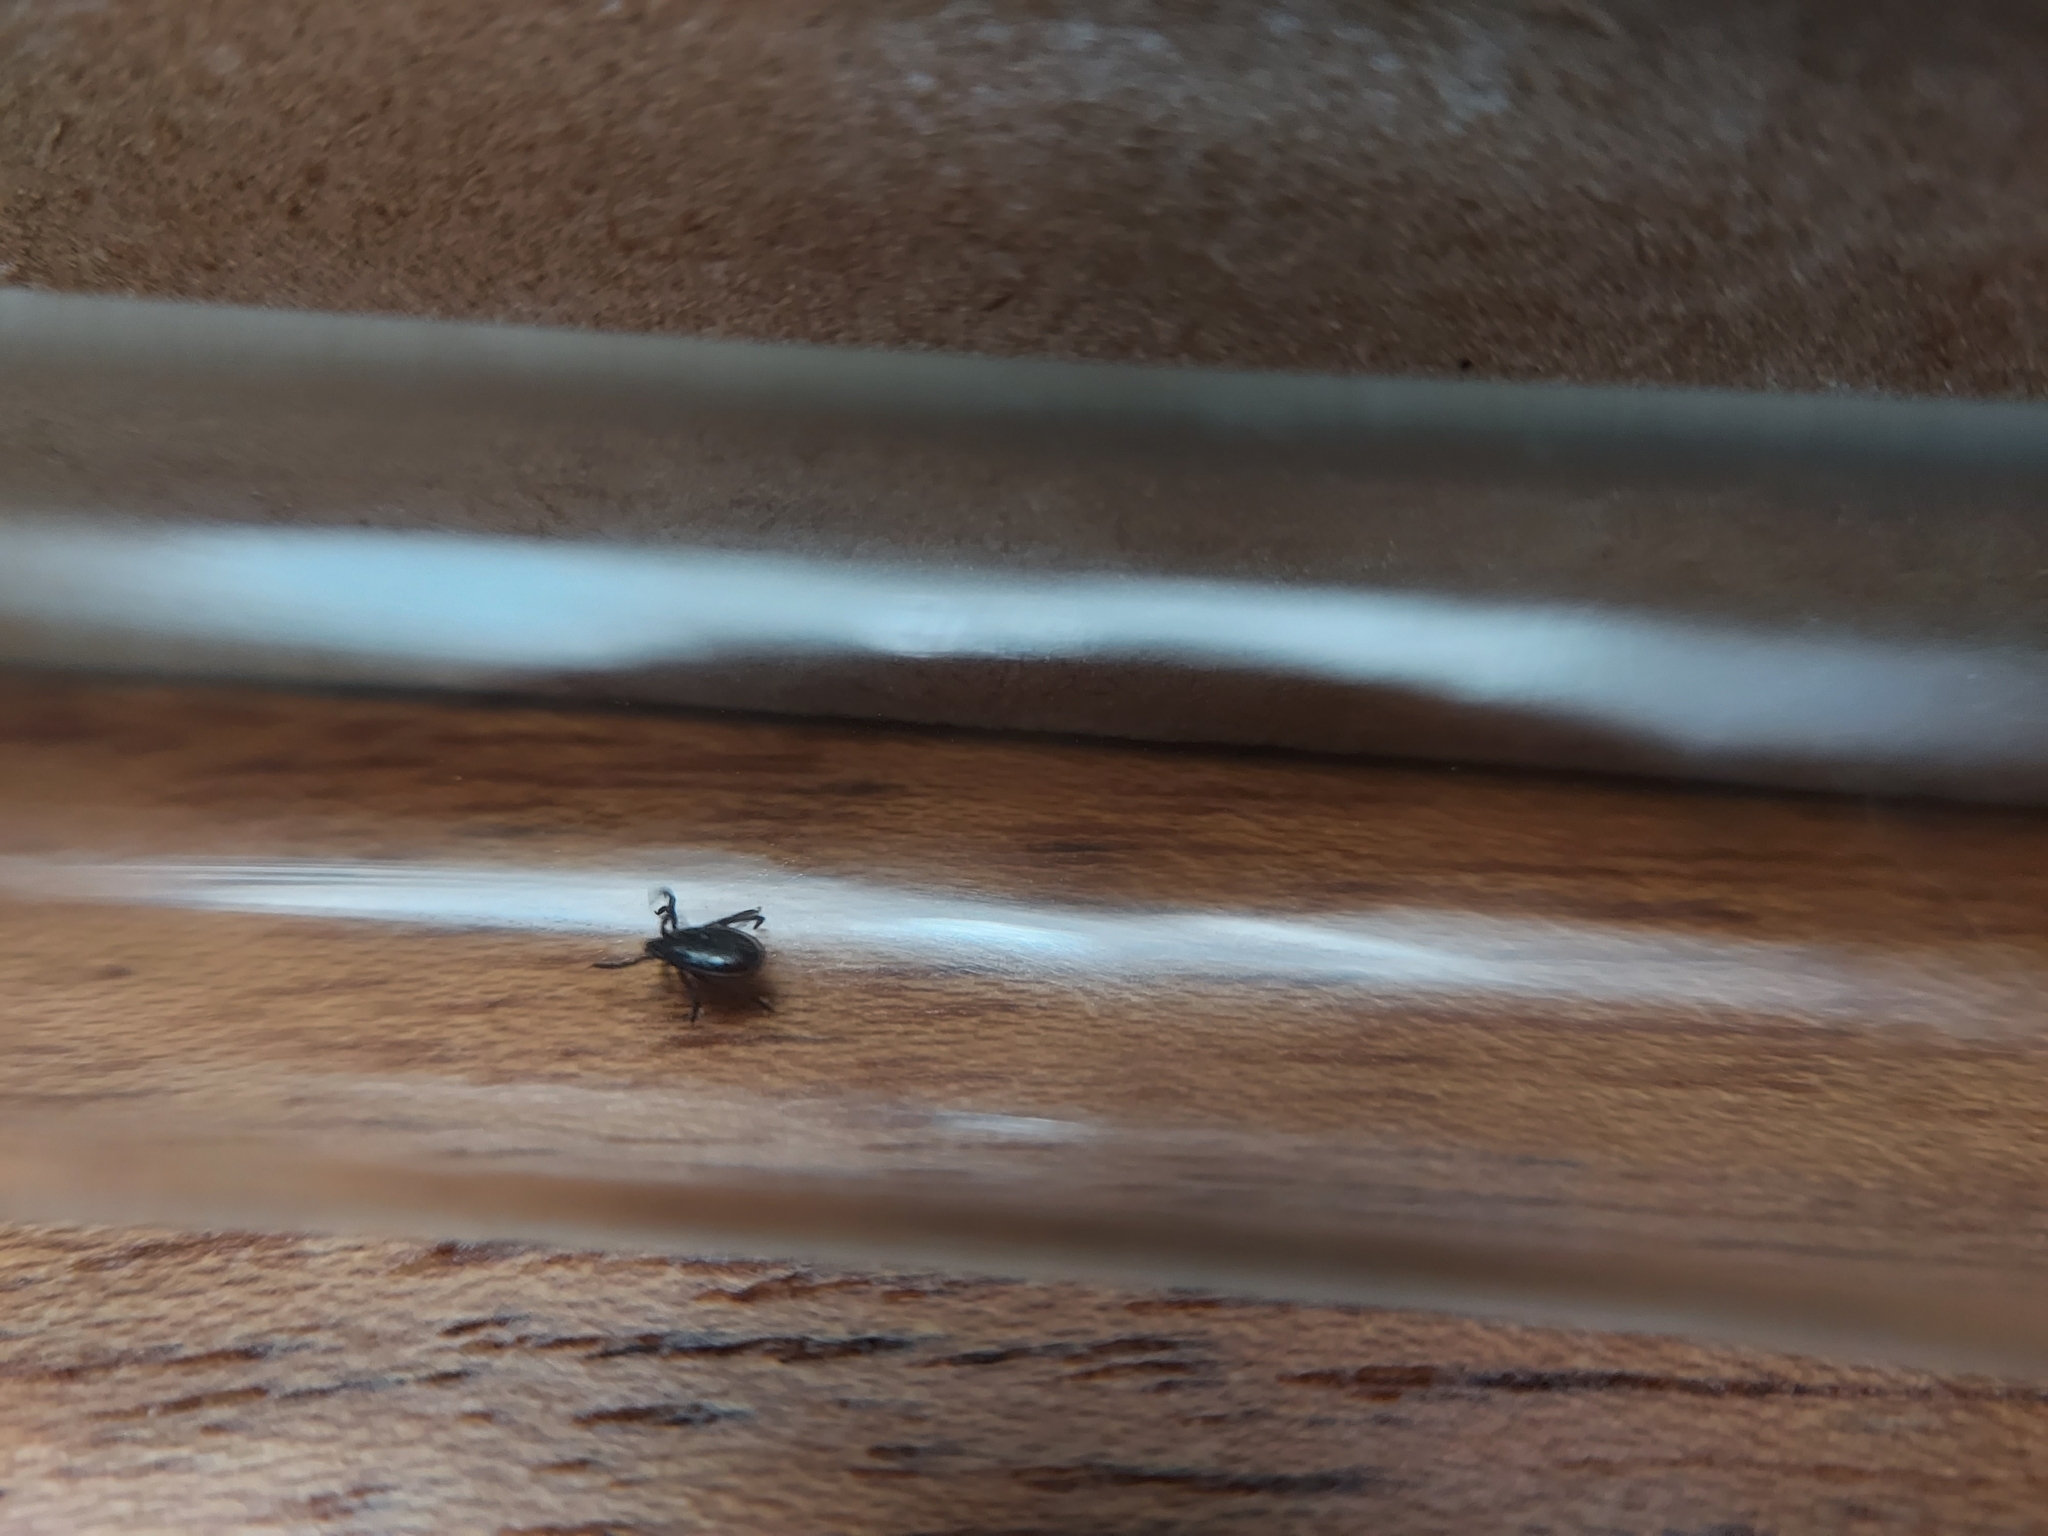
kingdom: Animalia
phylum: Arthropoda
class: Arachnida
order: Ixodida
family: Ixodidae
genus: Ixodes
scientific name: Ixodes pacificus
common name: California black-legged tick
